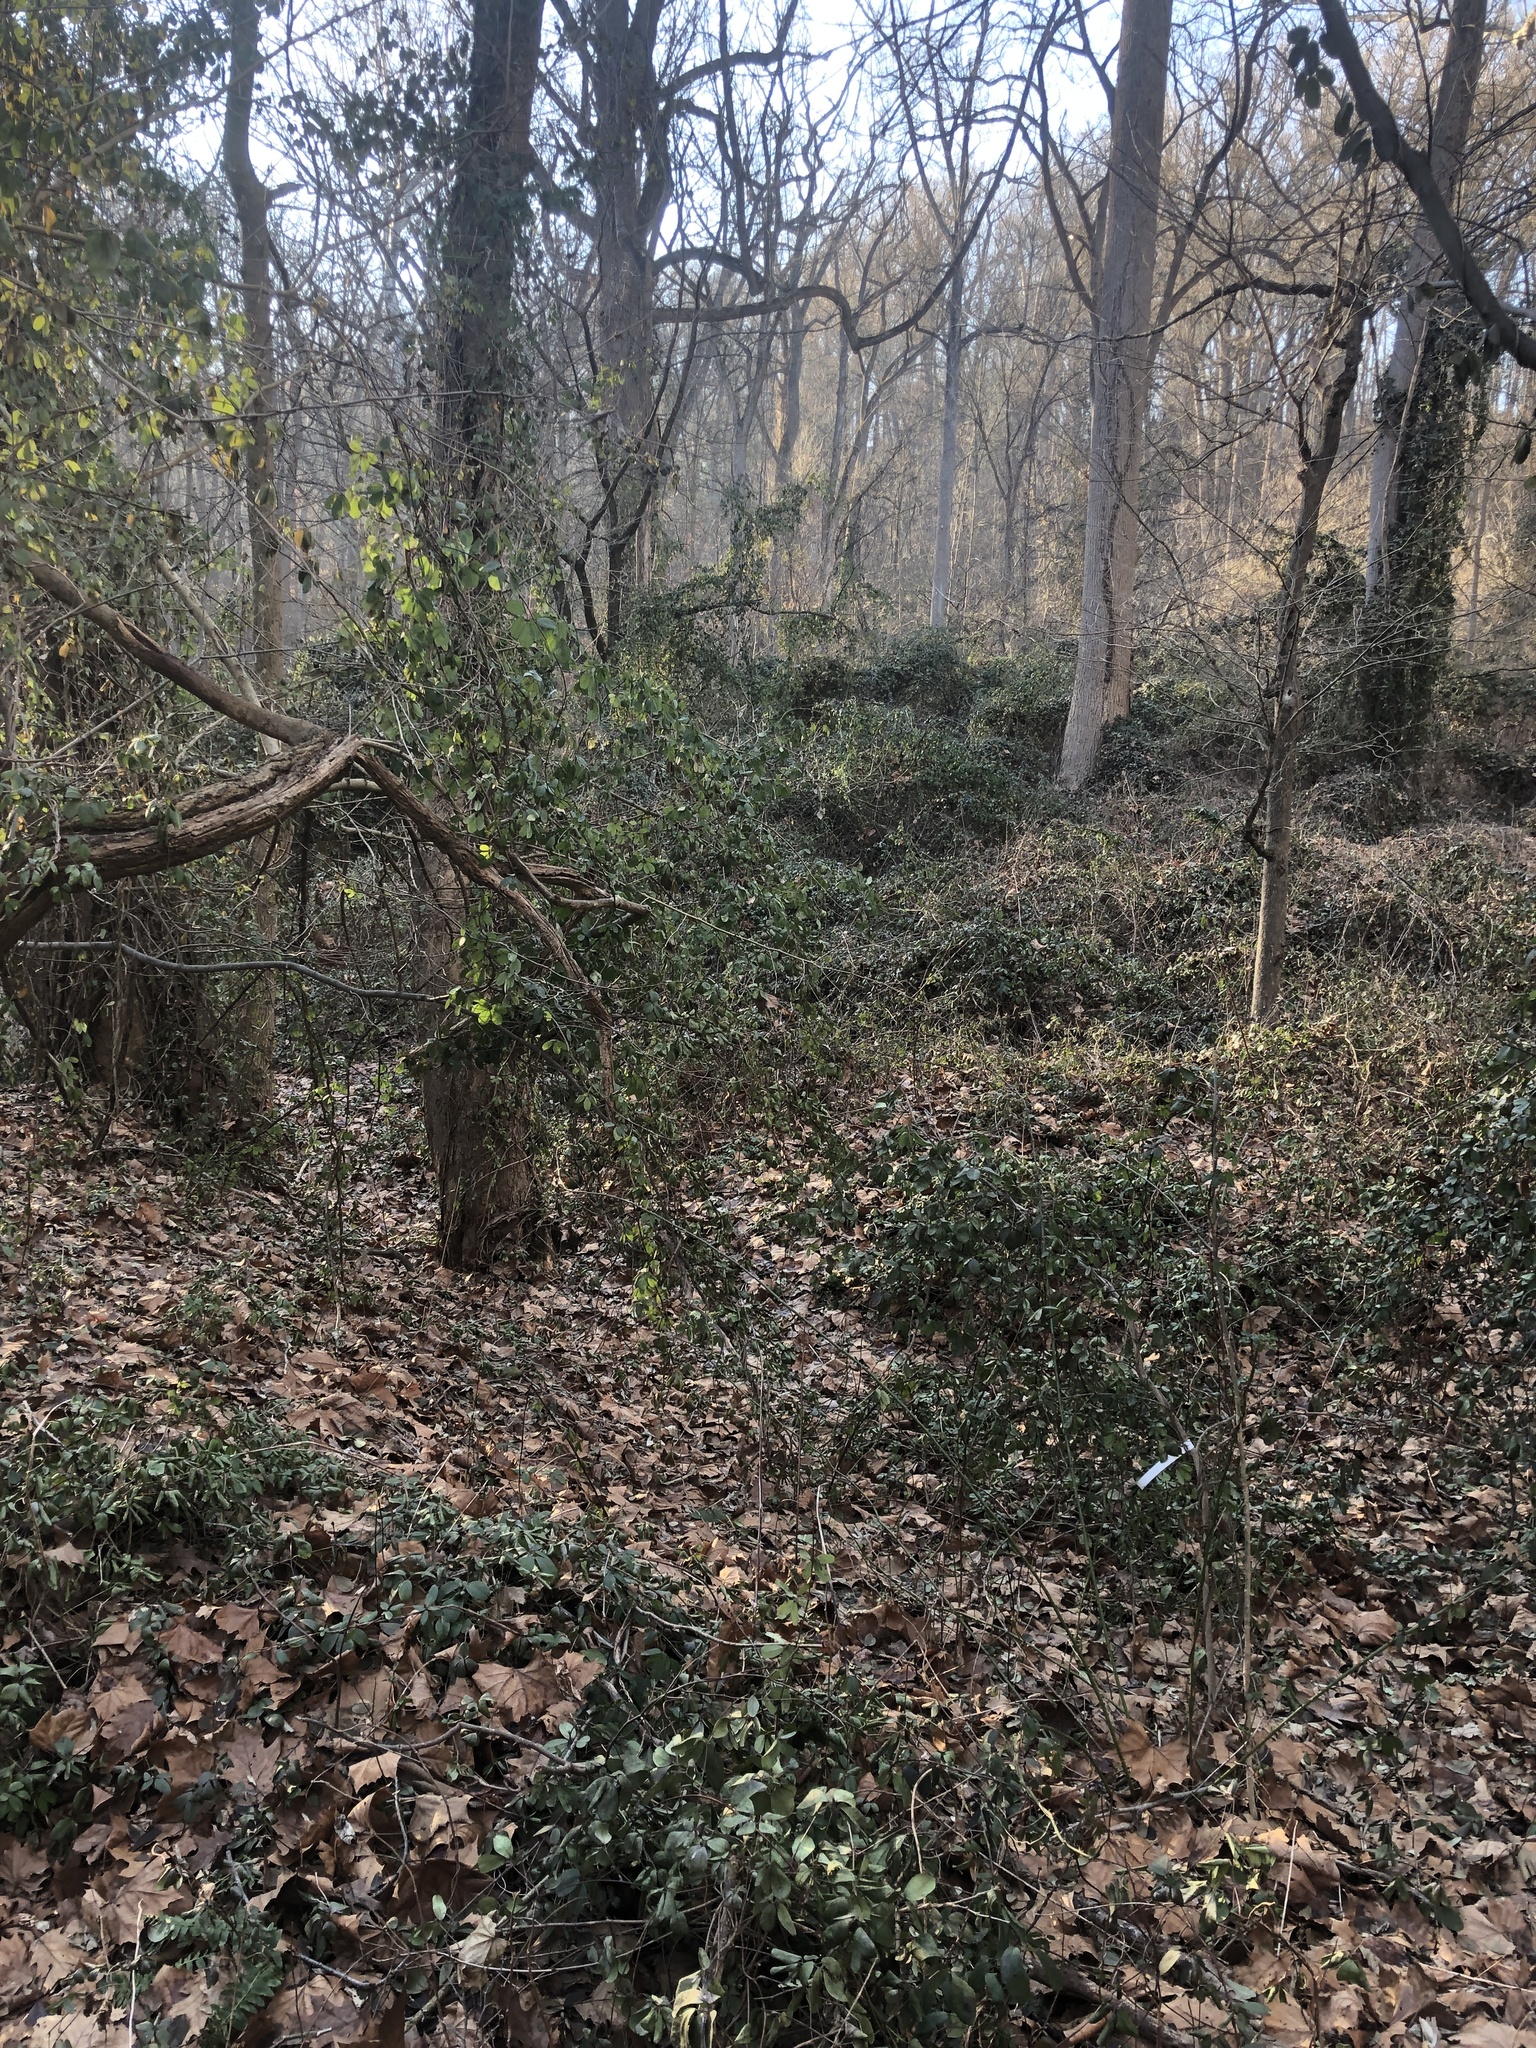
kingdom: Plantae
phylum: Tracheophyta
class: Magnoliopsida
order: Ranunculales
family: Lardizabalaceae
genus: Akebia
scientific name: Akebia quinata
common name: Five-leaf akebia
